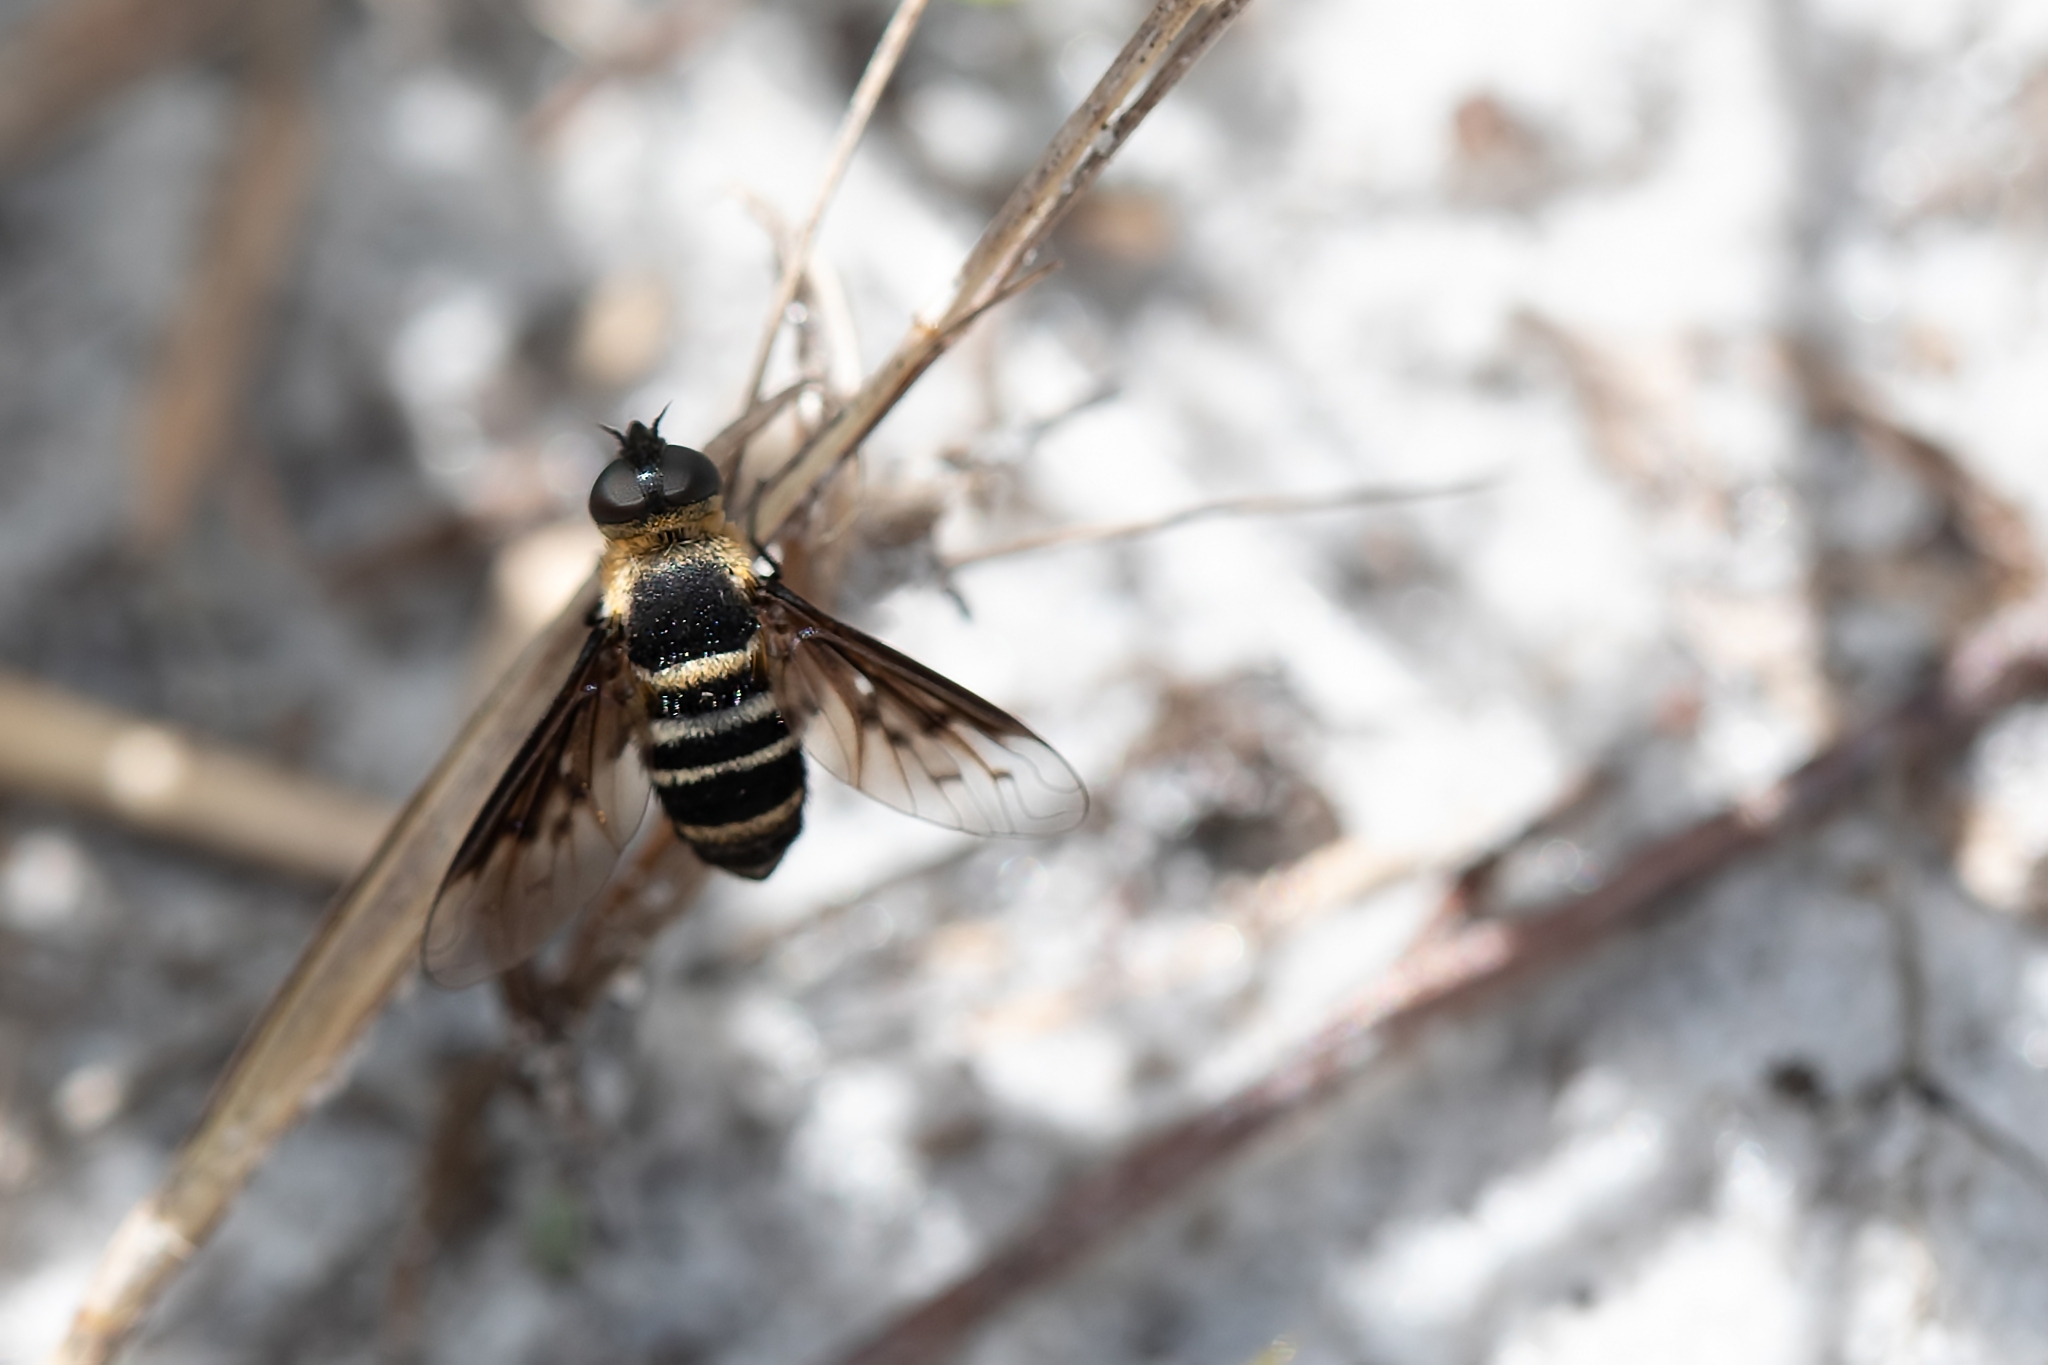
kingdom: Animalia
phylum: Arthropoda
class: Insecta
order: Diptera
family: Bombyliidae
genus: Chrysanthrax
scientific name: Chrysanthrax dispar
